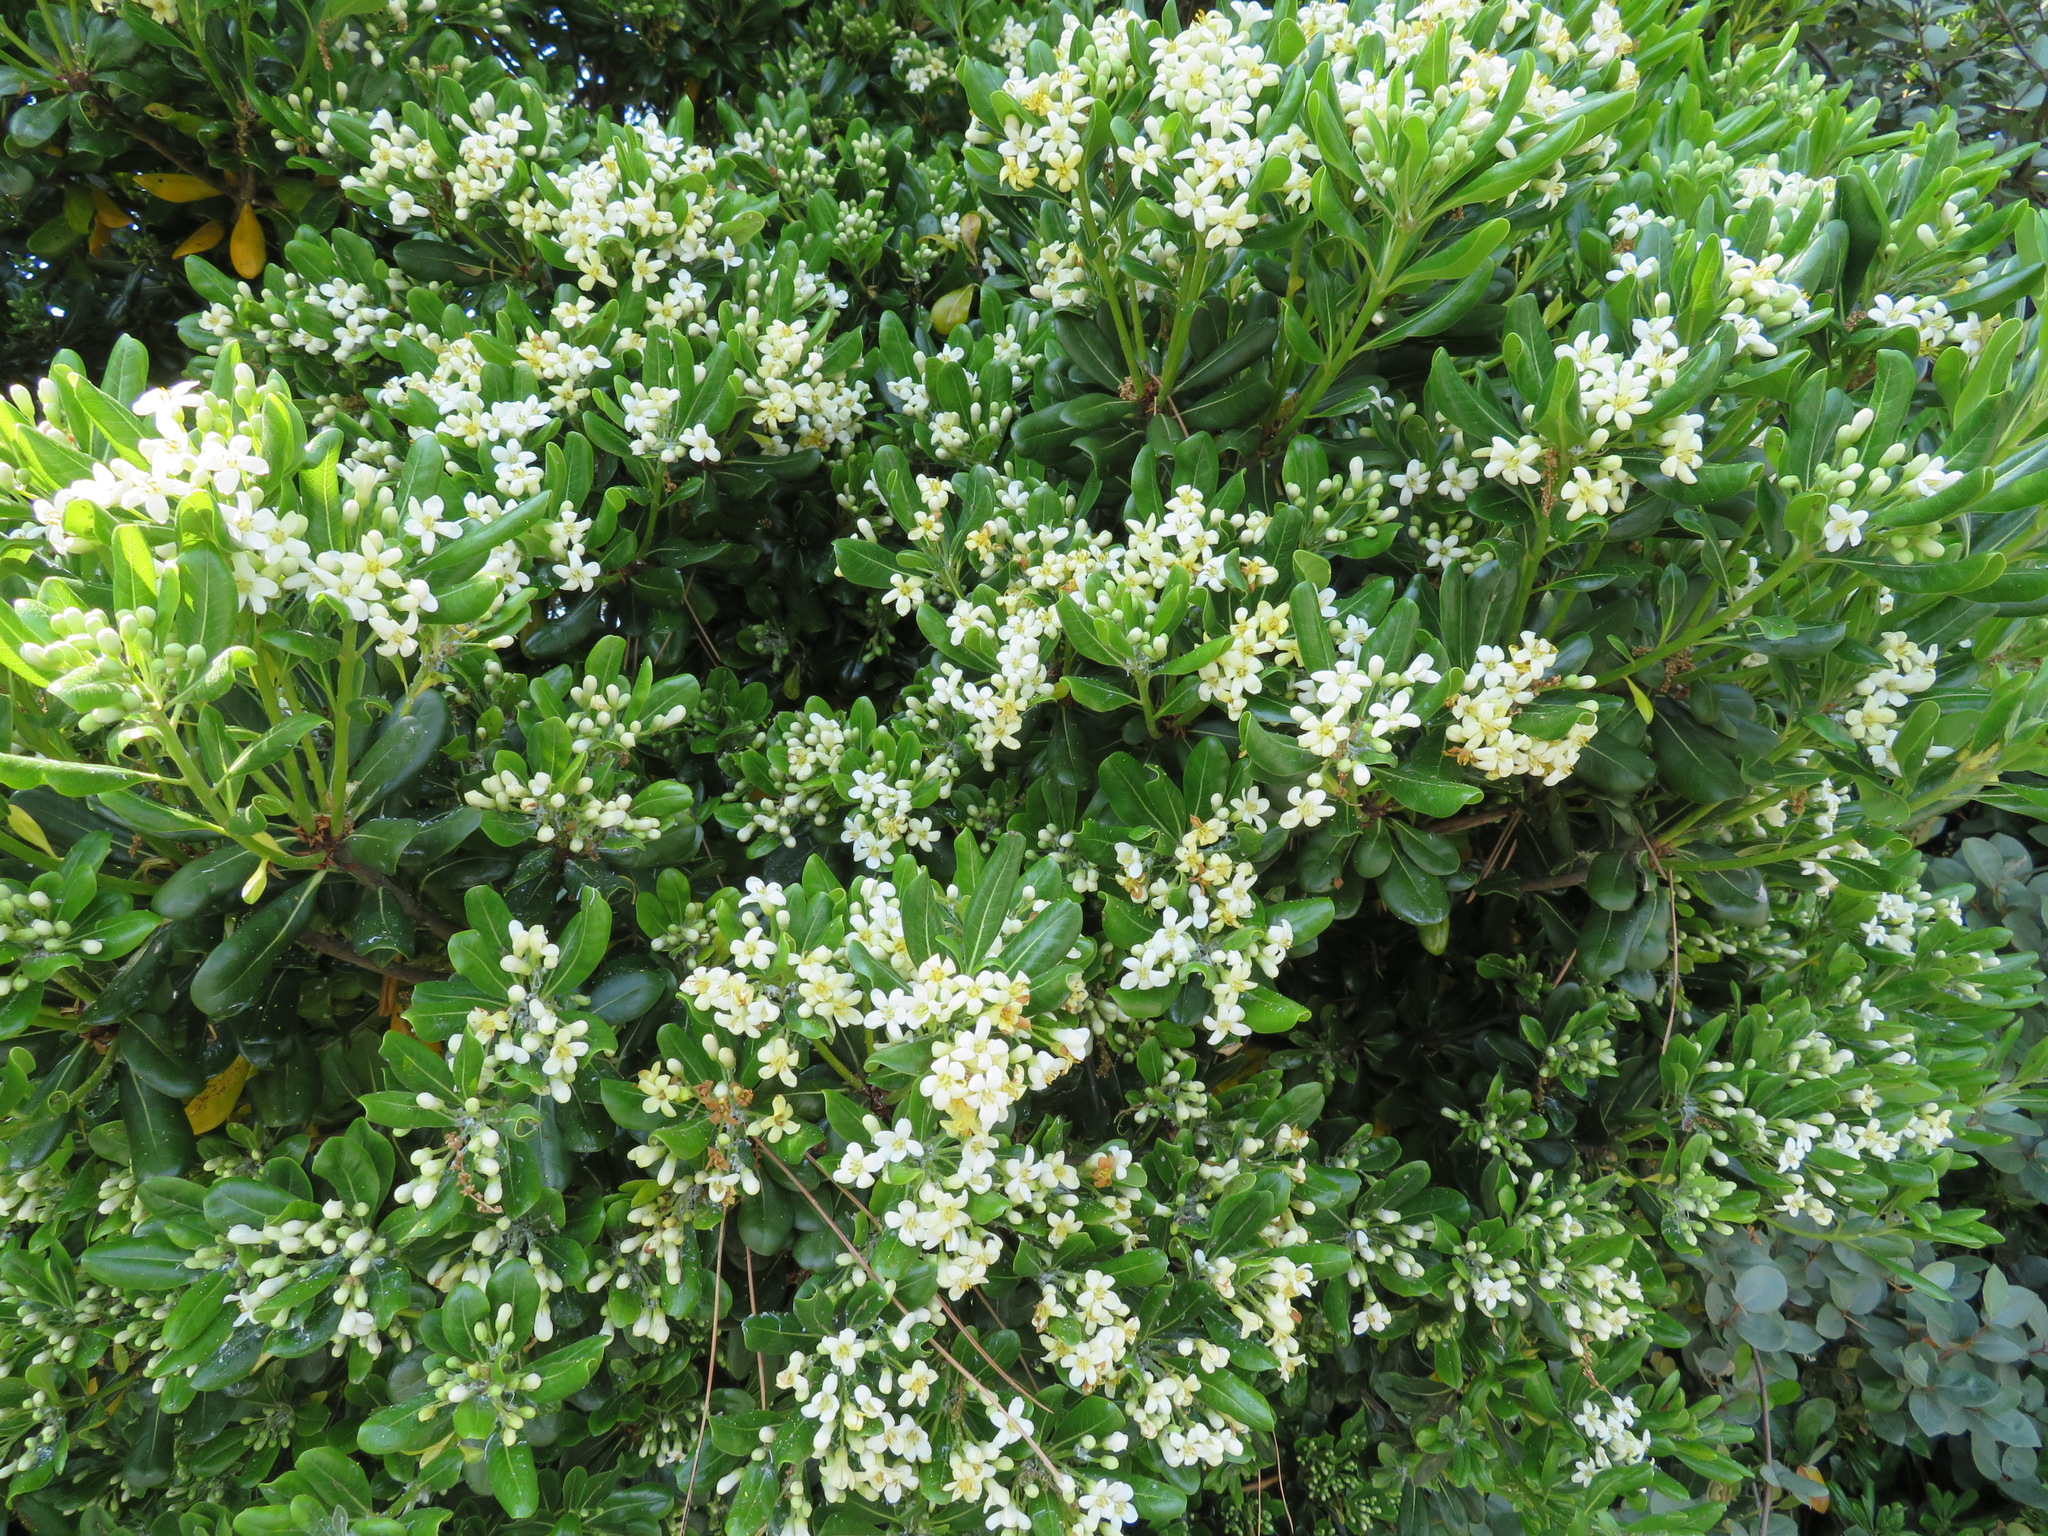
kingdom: Plantae
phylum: Tracheophyta
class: Magnoliopsida
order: Apiales
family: Pittosporaceae
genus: Pittosporum
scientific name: Pittosporum tobira
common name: Japanese cheesewood
